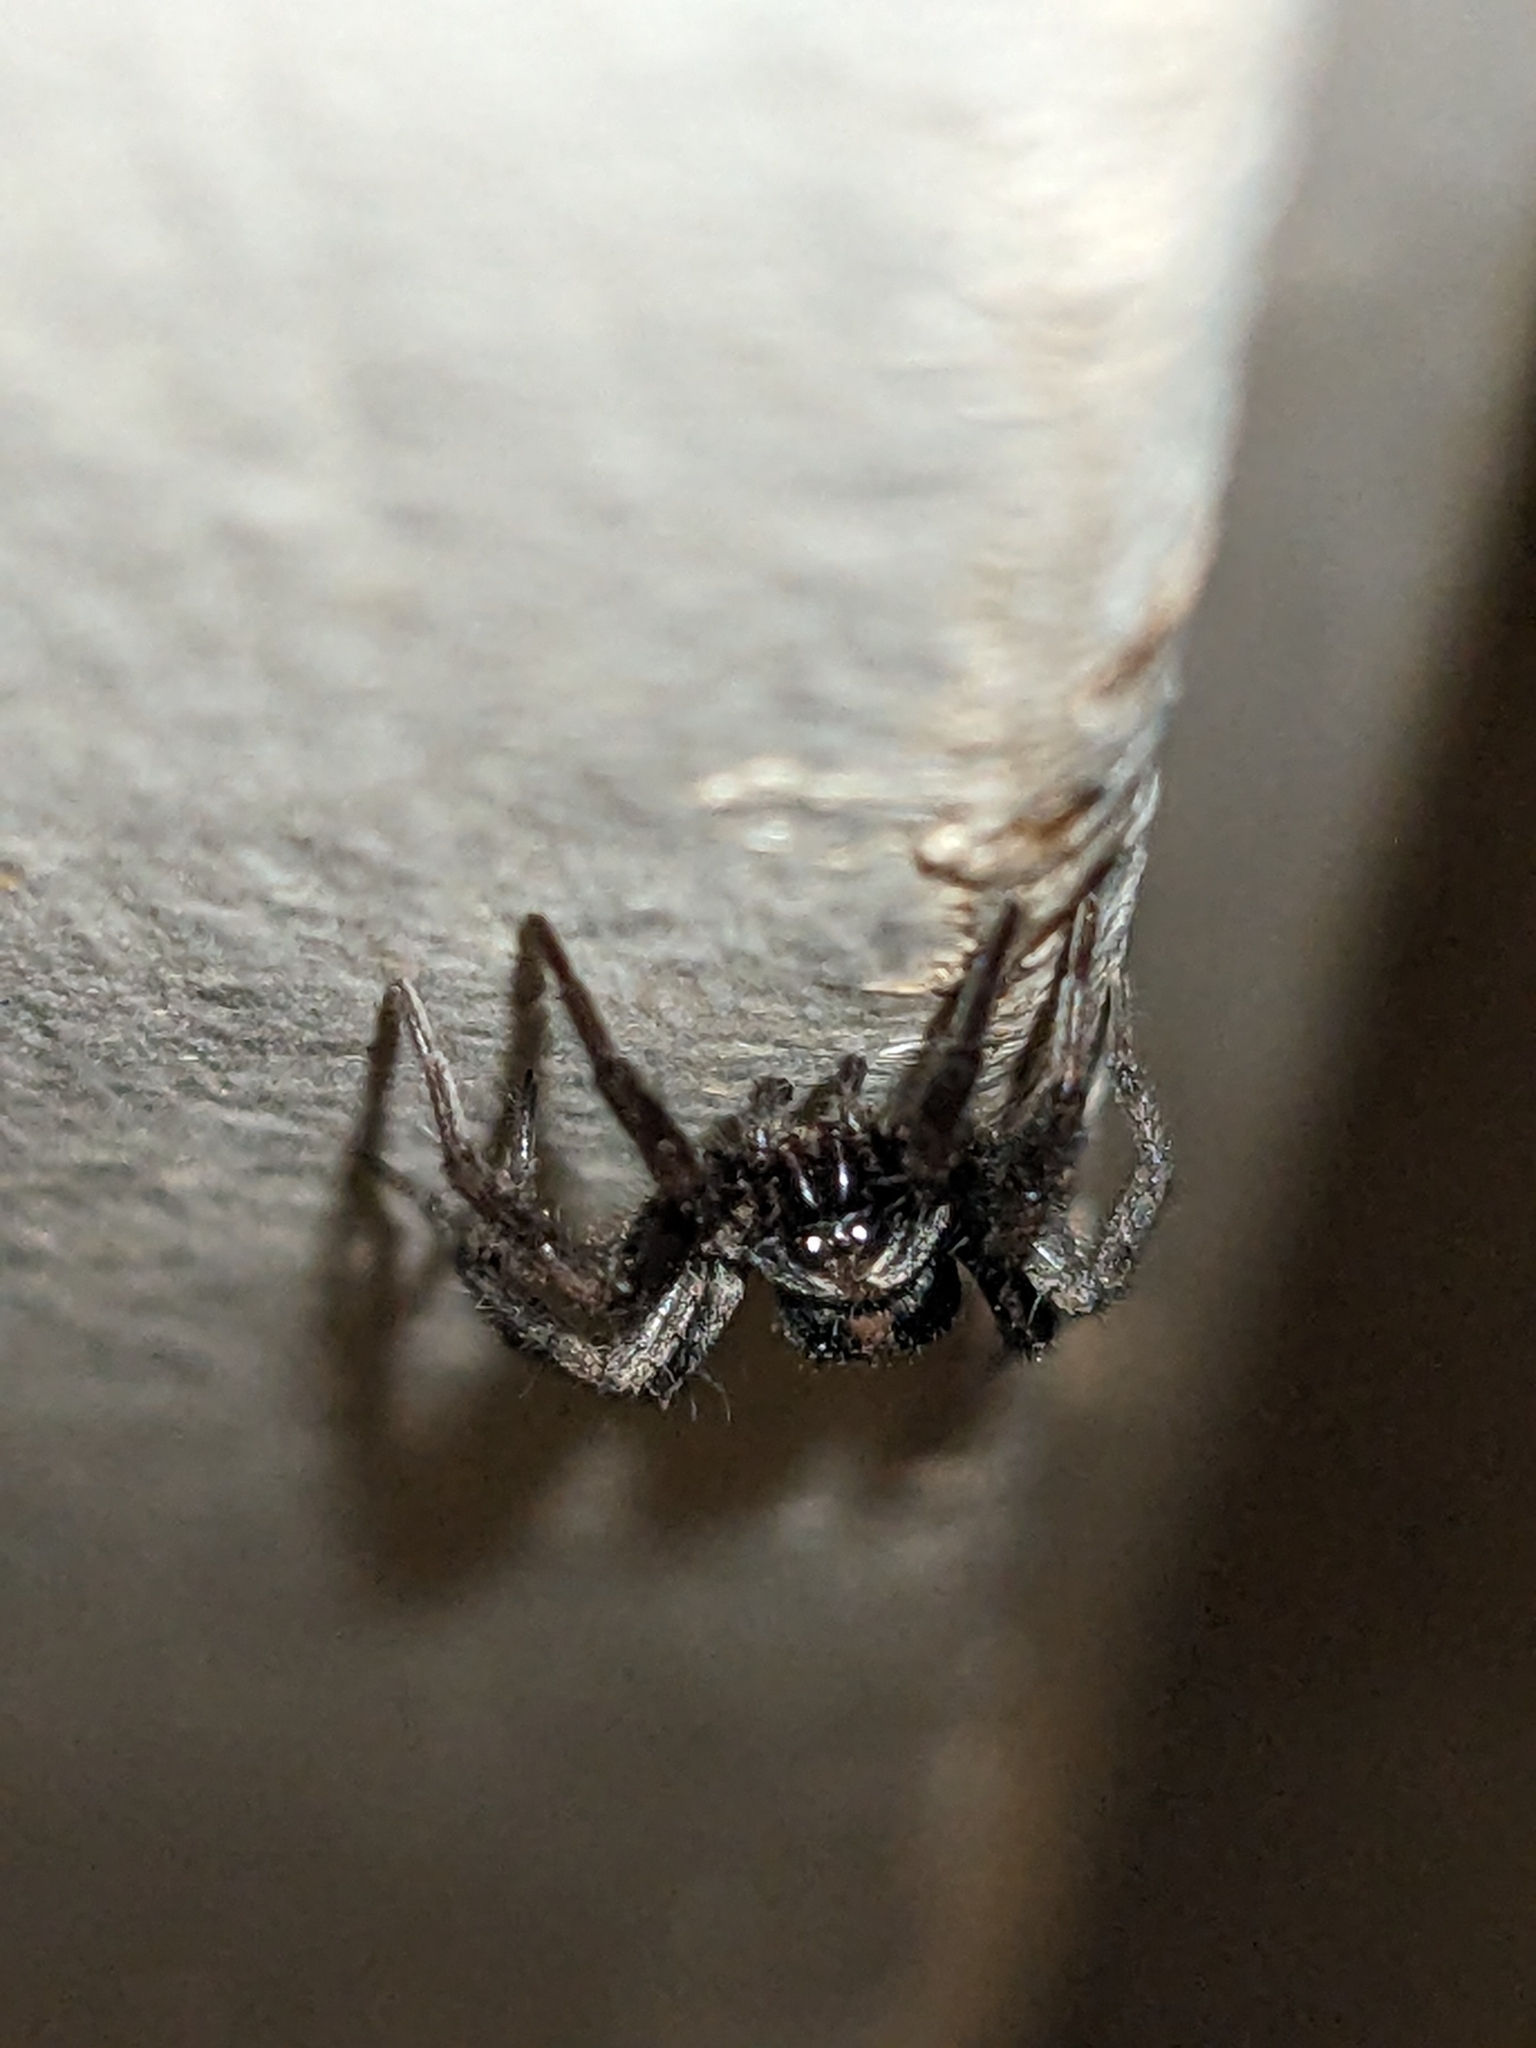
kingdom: Animalia
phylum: Arthropoda
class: Arachnida
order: Araneae
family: Gnaphosidae
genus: Herpyllus
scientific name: Herpyllus ecclesiasticus
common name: Eastern parson spider
